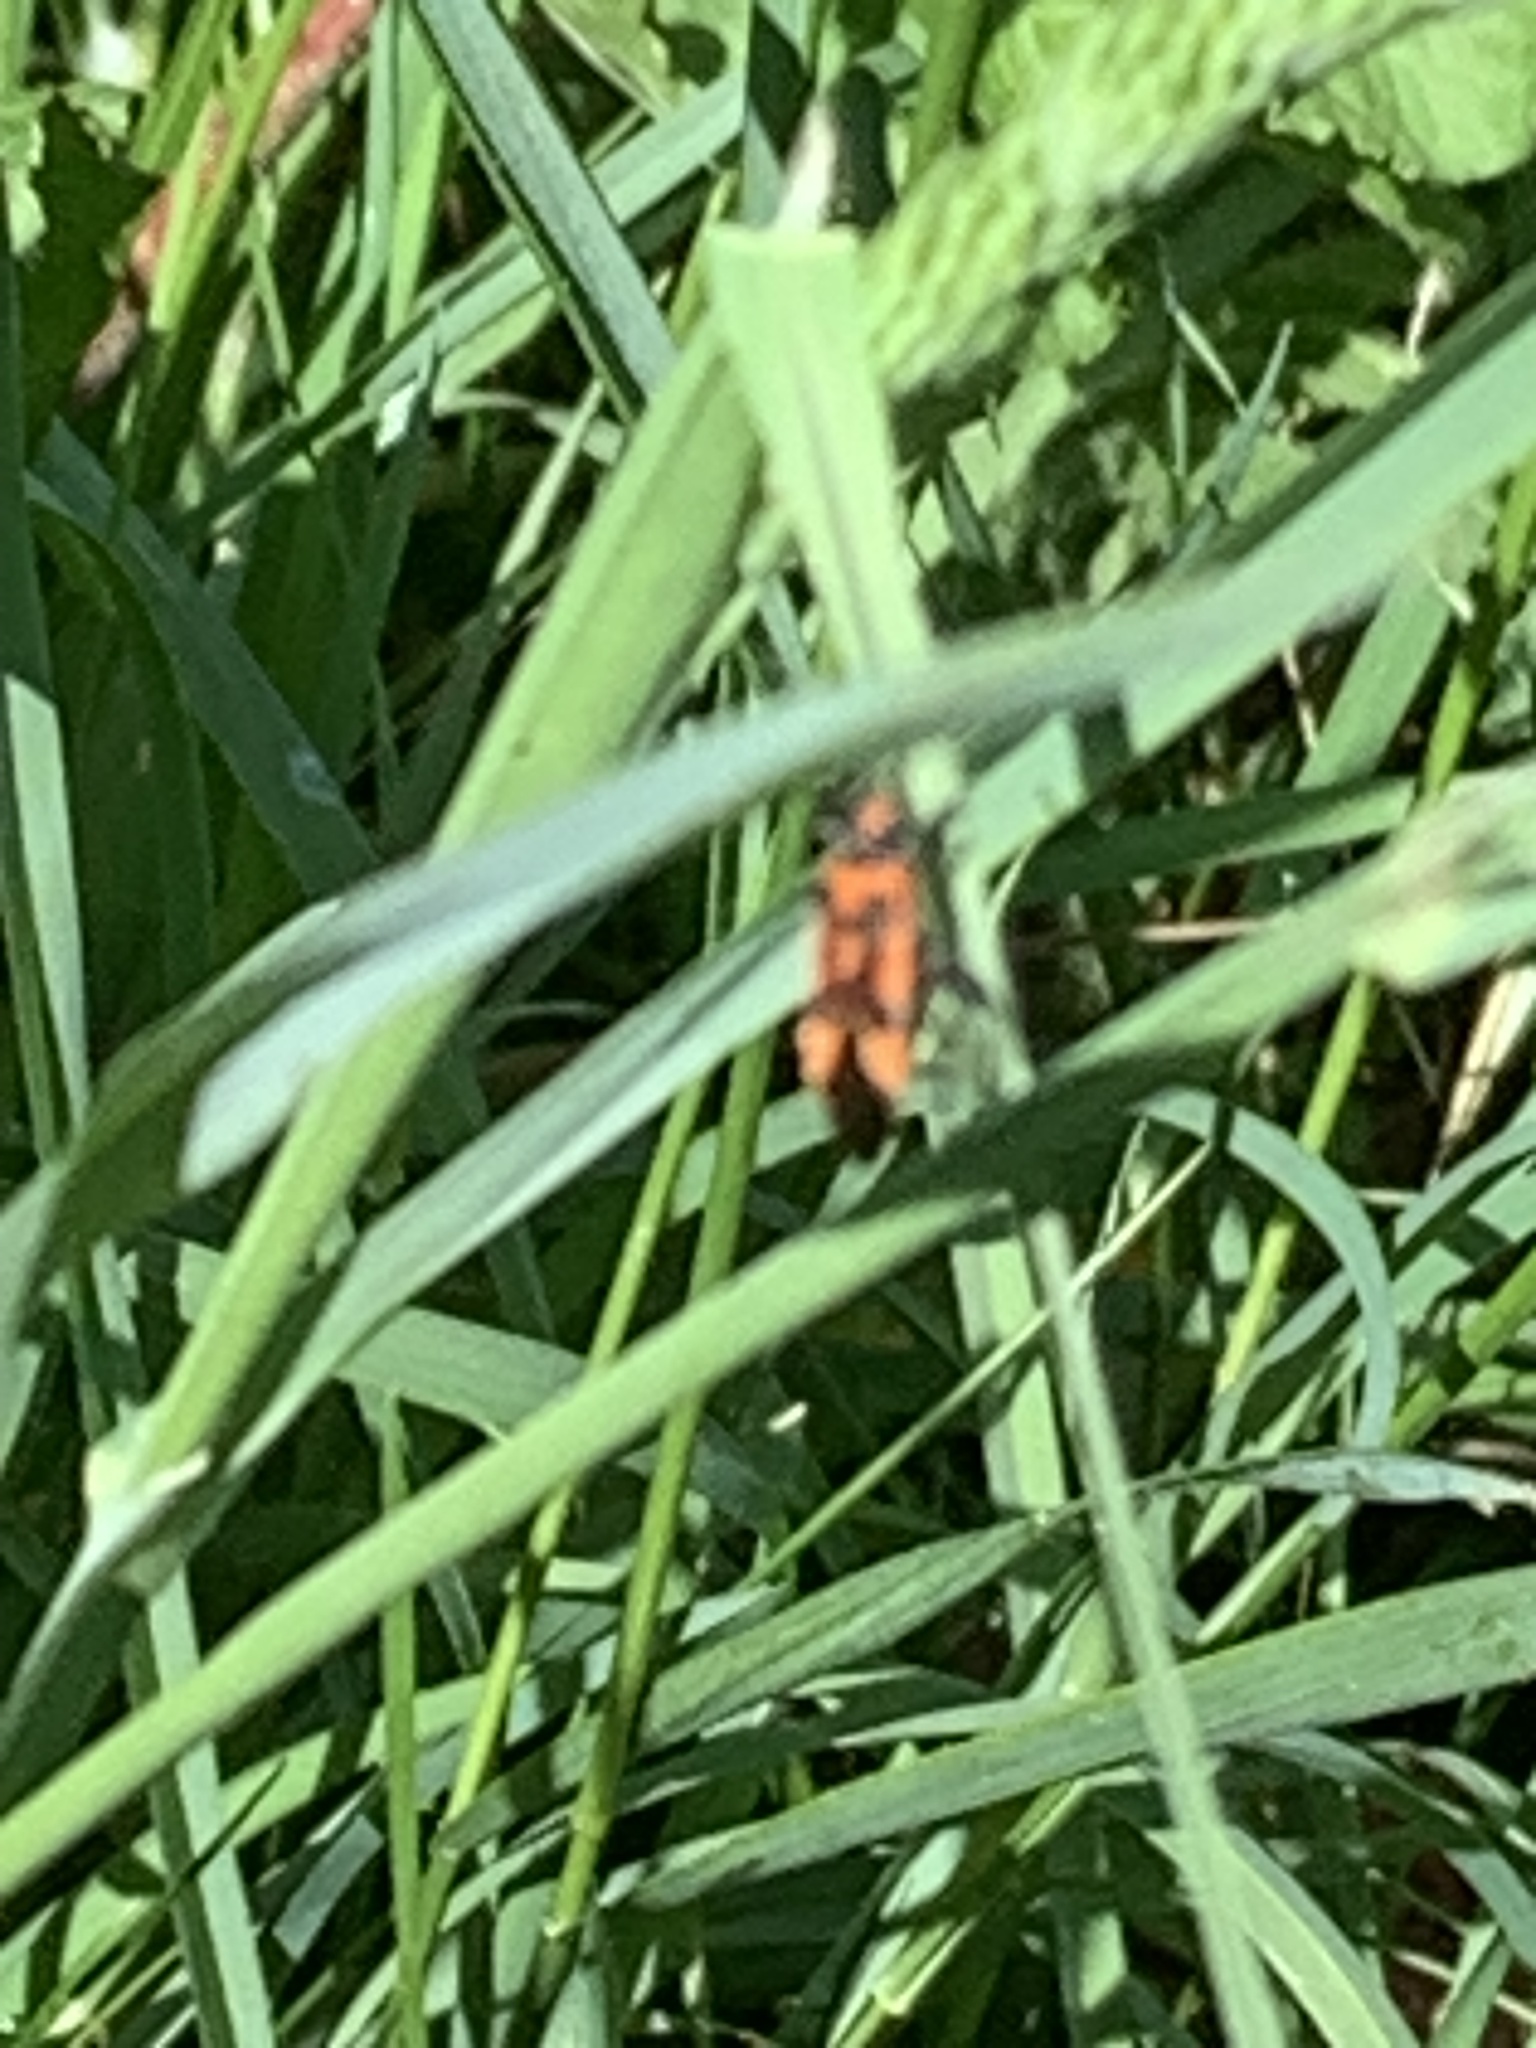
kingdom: Animalia
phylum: Arthropoda
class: Insecta
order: Hemiptera
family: Rhopalidae
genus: Corizus
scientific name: Corizus hyoscyami
